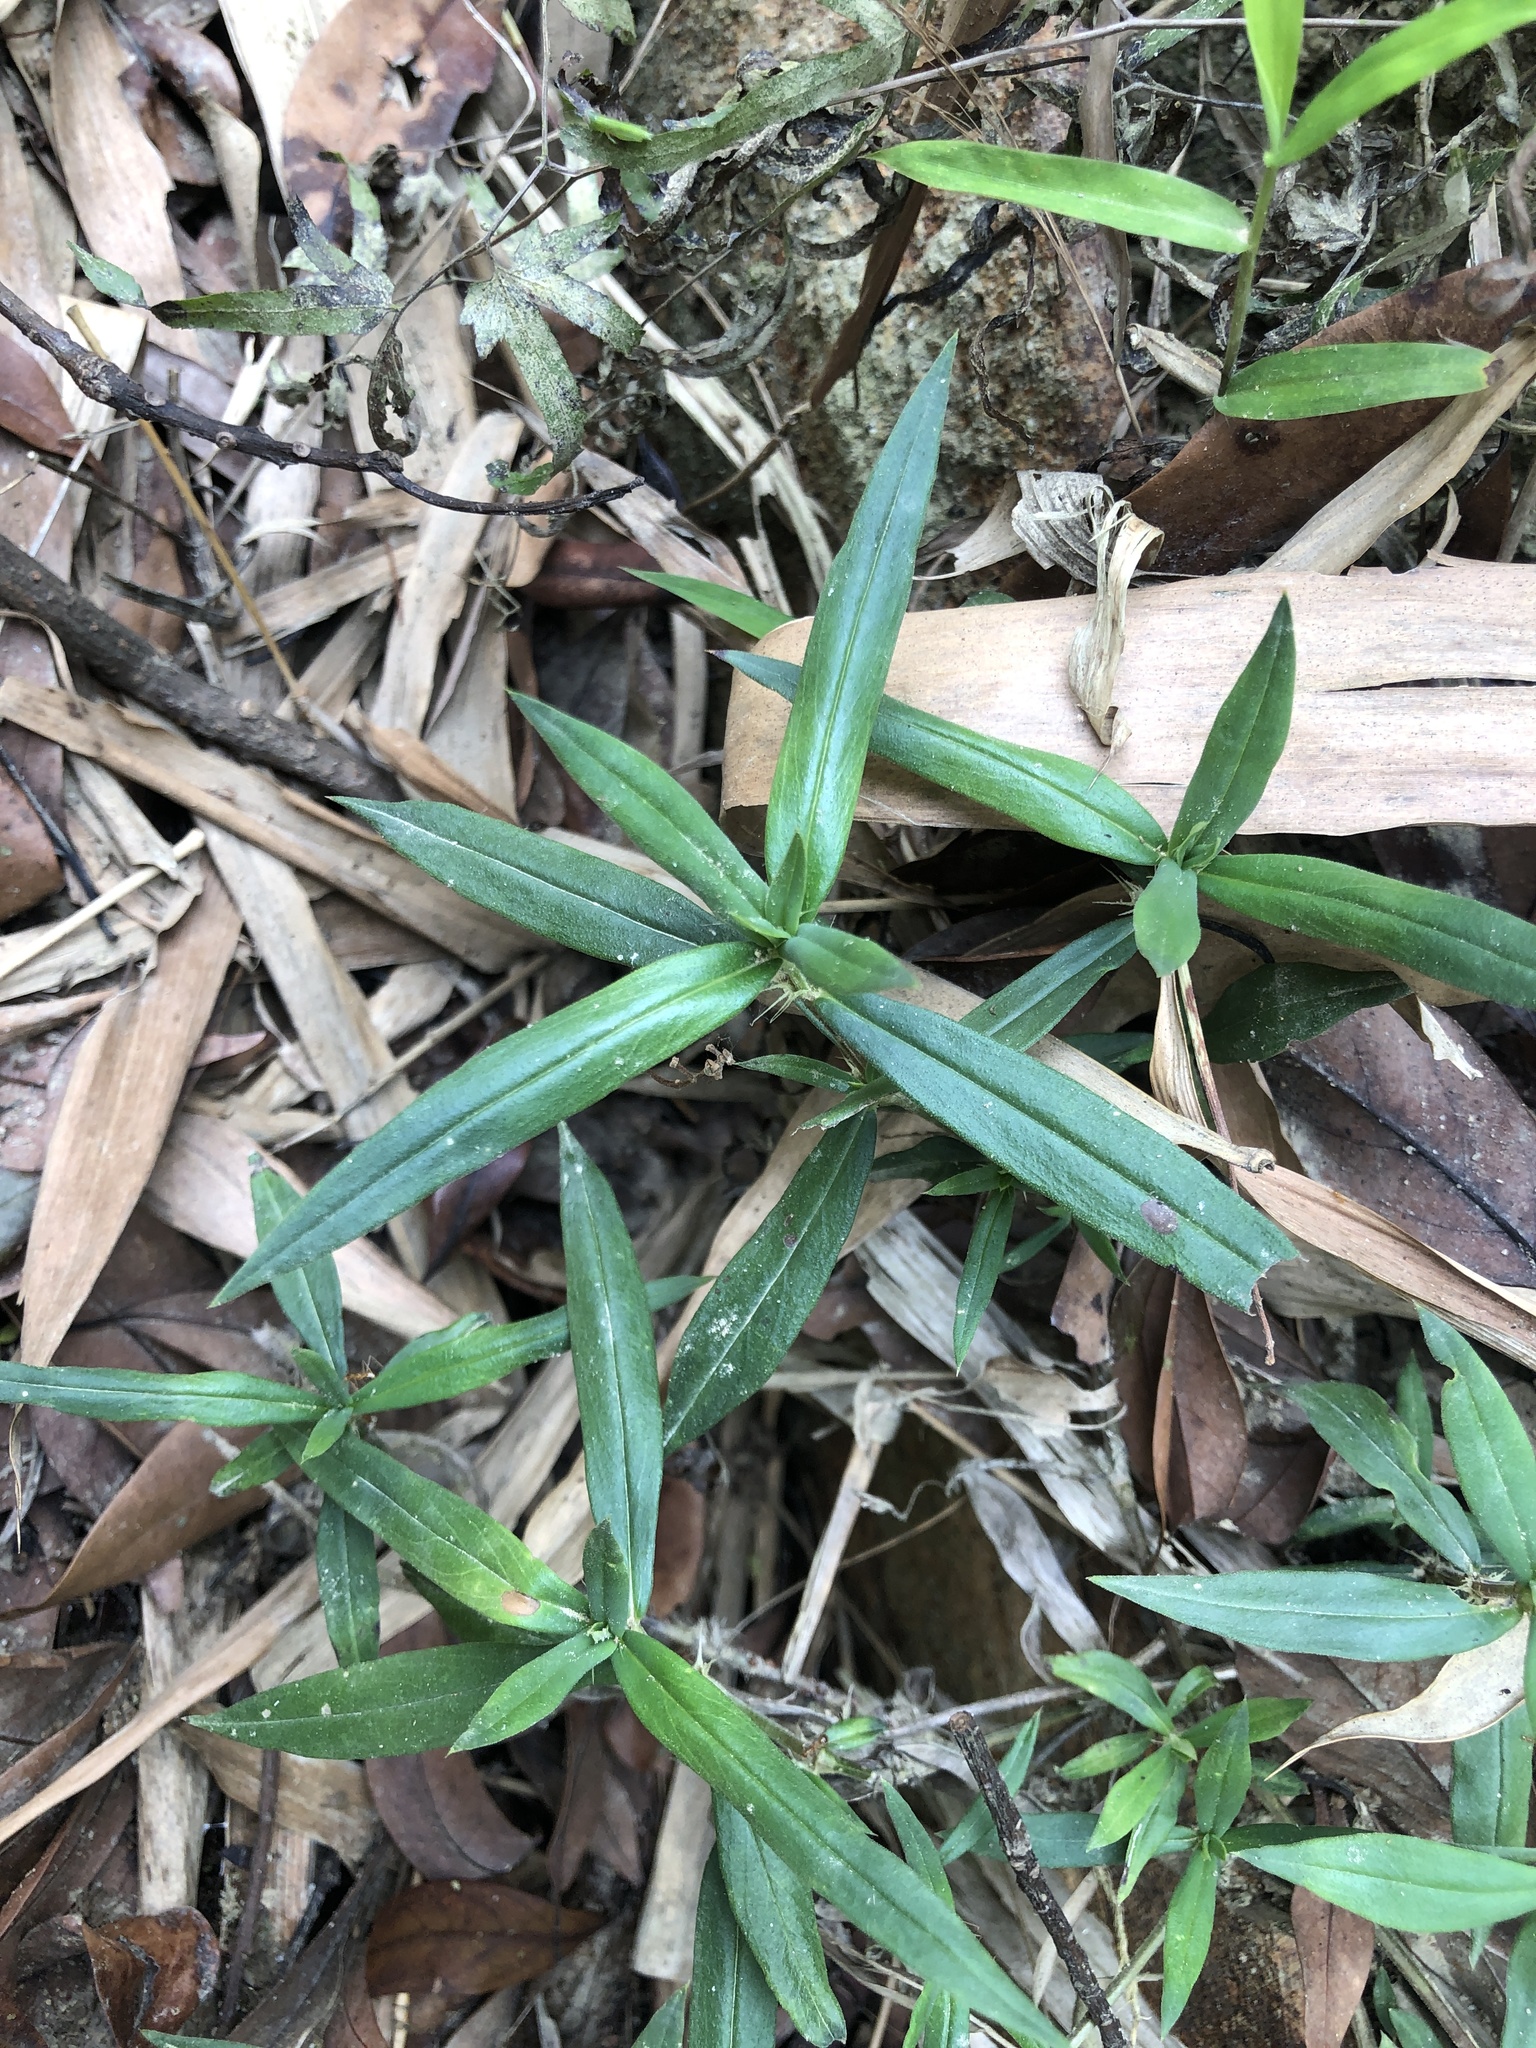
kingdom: Plantae
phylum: Tracheophyta
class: Magnoliopsida
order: Gentianales
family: Rubiaceae
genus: Scleromitrion
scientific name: Scleromitrion verticillatum
